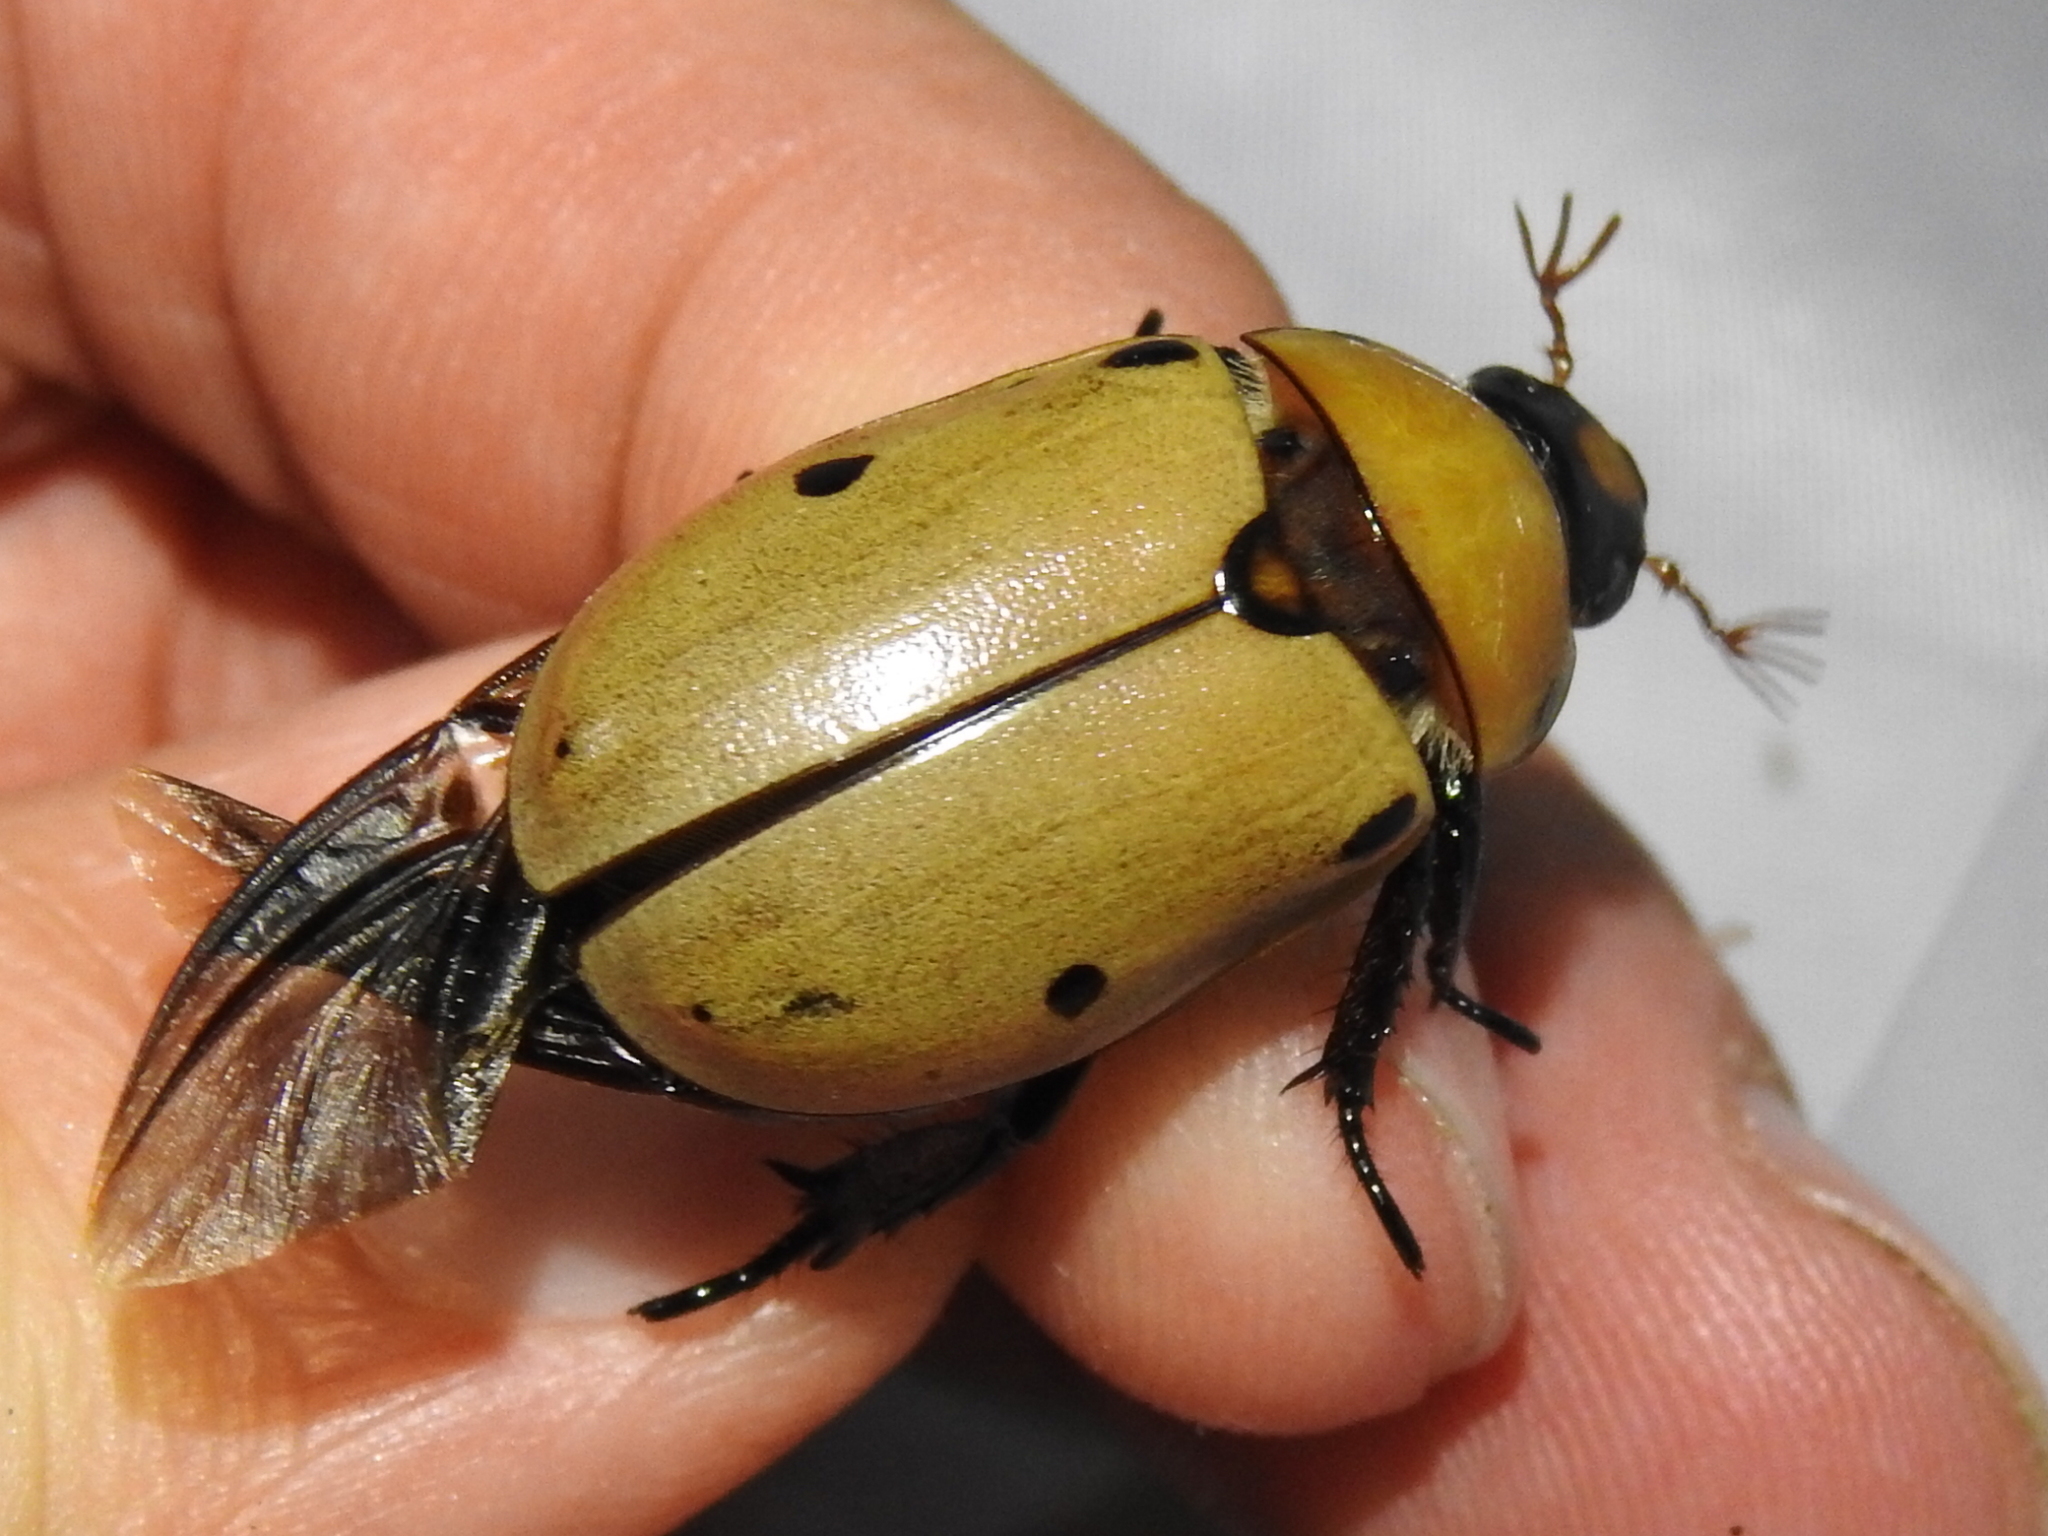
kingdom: Animalia
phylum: Arthropoda
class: Insecta
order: Coleoptera
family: Scarabaeidae
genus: Pelidnota
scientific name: Pelidnota punctata
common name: Grapevine beetle
